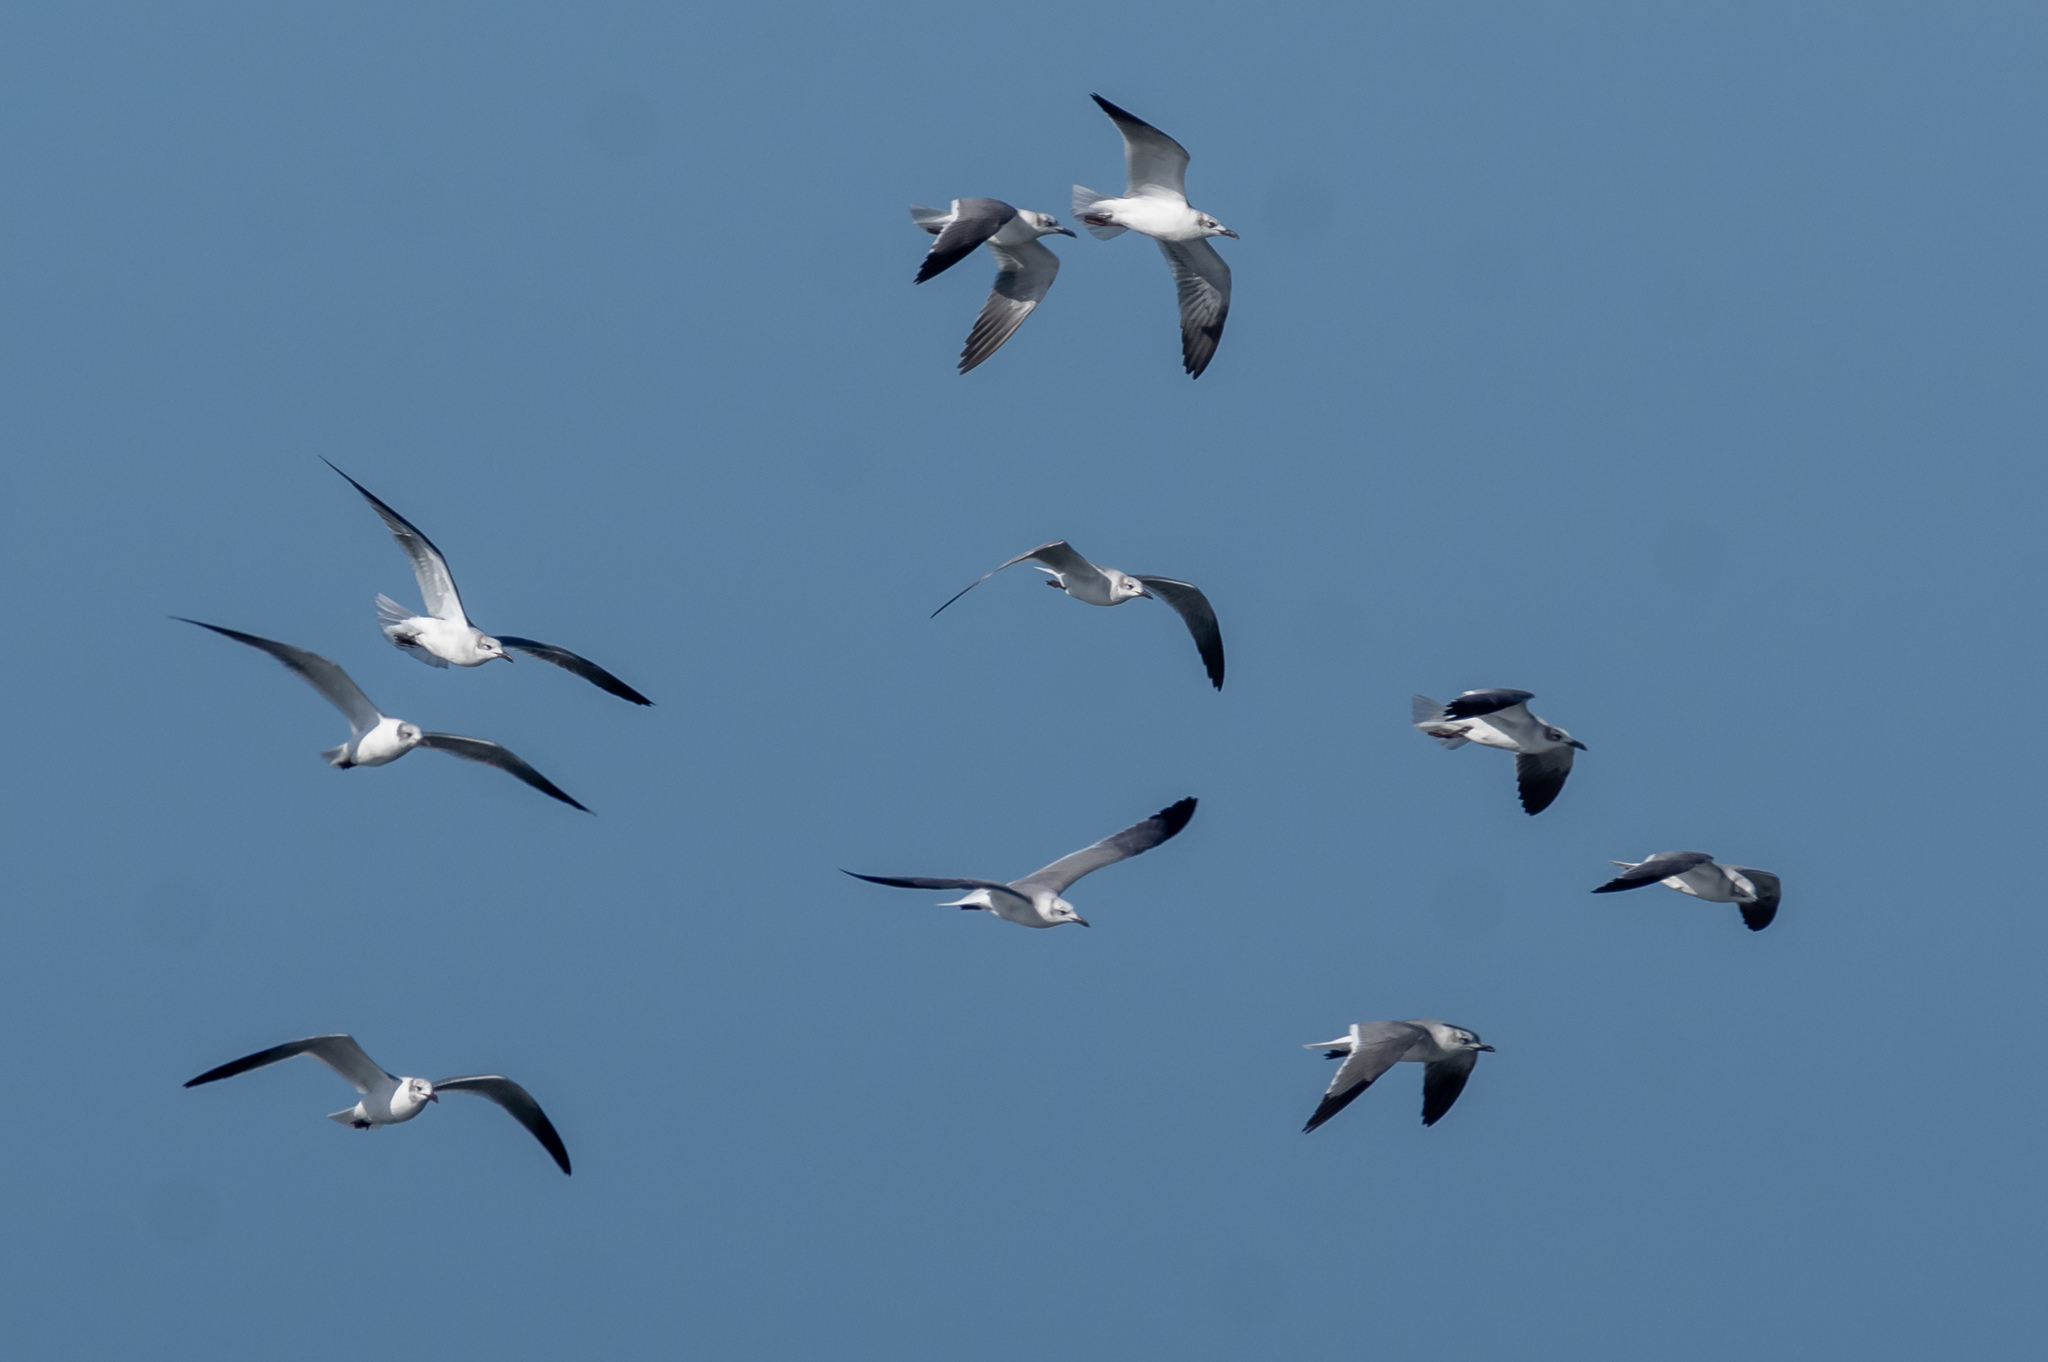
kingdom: Animalia
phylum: Chordata
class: Aves
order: Charadriiformes
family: Laridae
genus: Leucophaeus
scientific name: Leucophaeus atricilla
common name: Laughing gull
